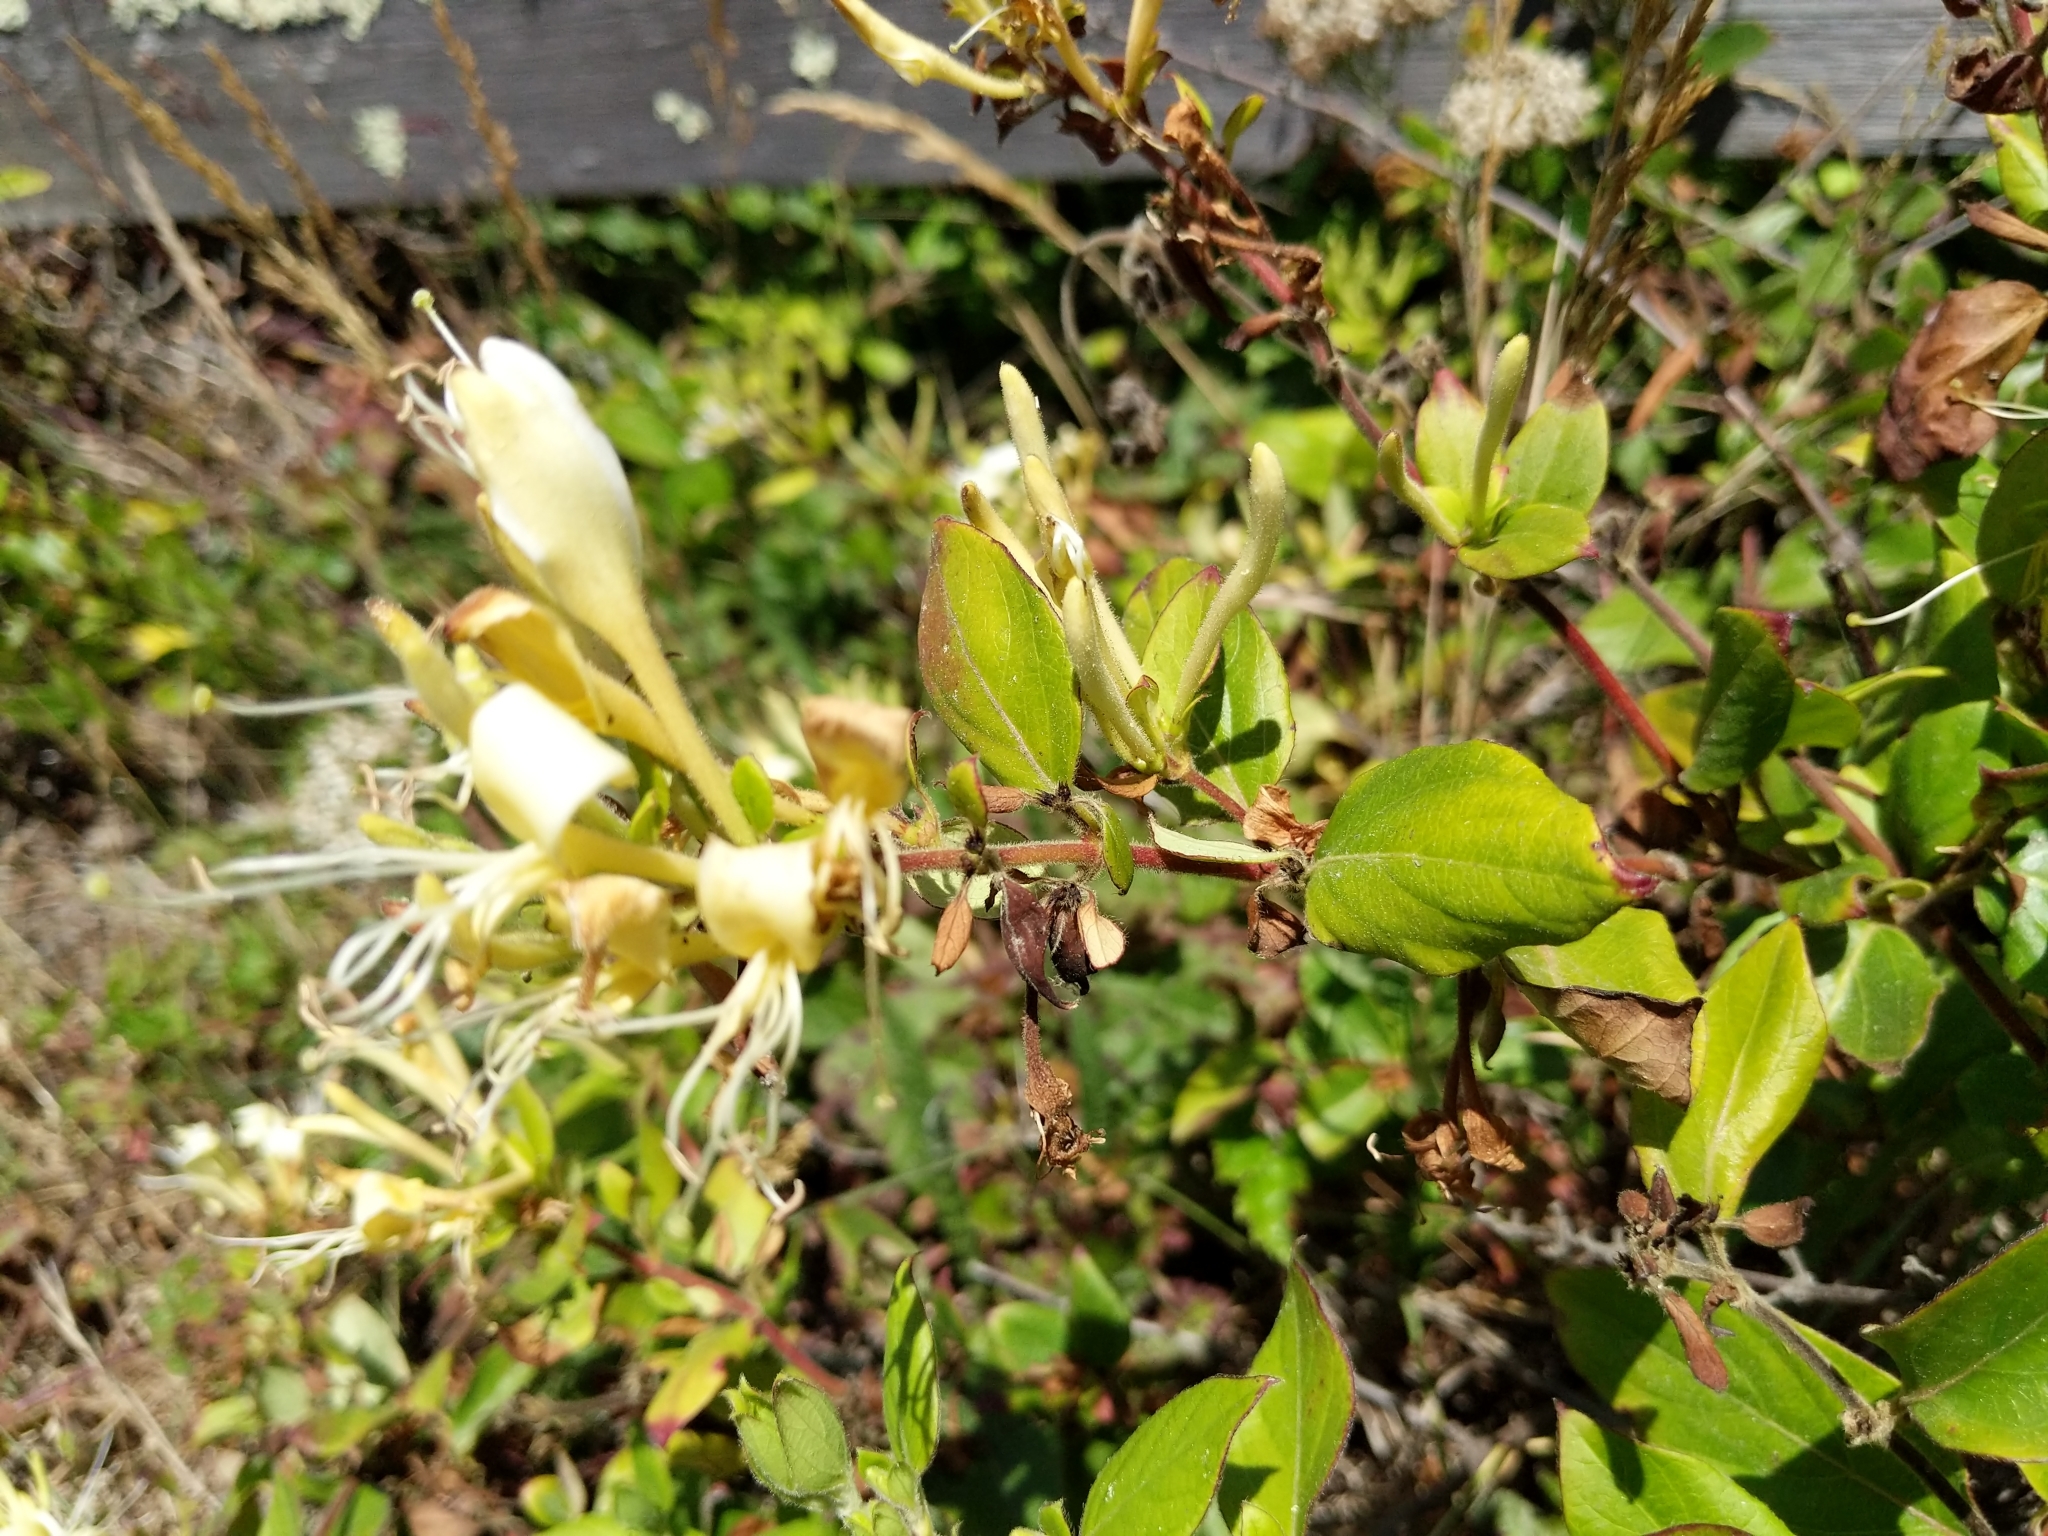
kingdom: Plantae
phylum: Tracheophyta
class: Magnoliopsida
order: Dipsacales
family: Caprifoliaceae
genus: Lonicera
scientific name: Lonicera japonica
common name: Japanese honeysuckle
